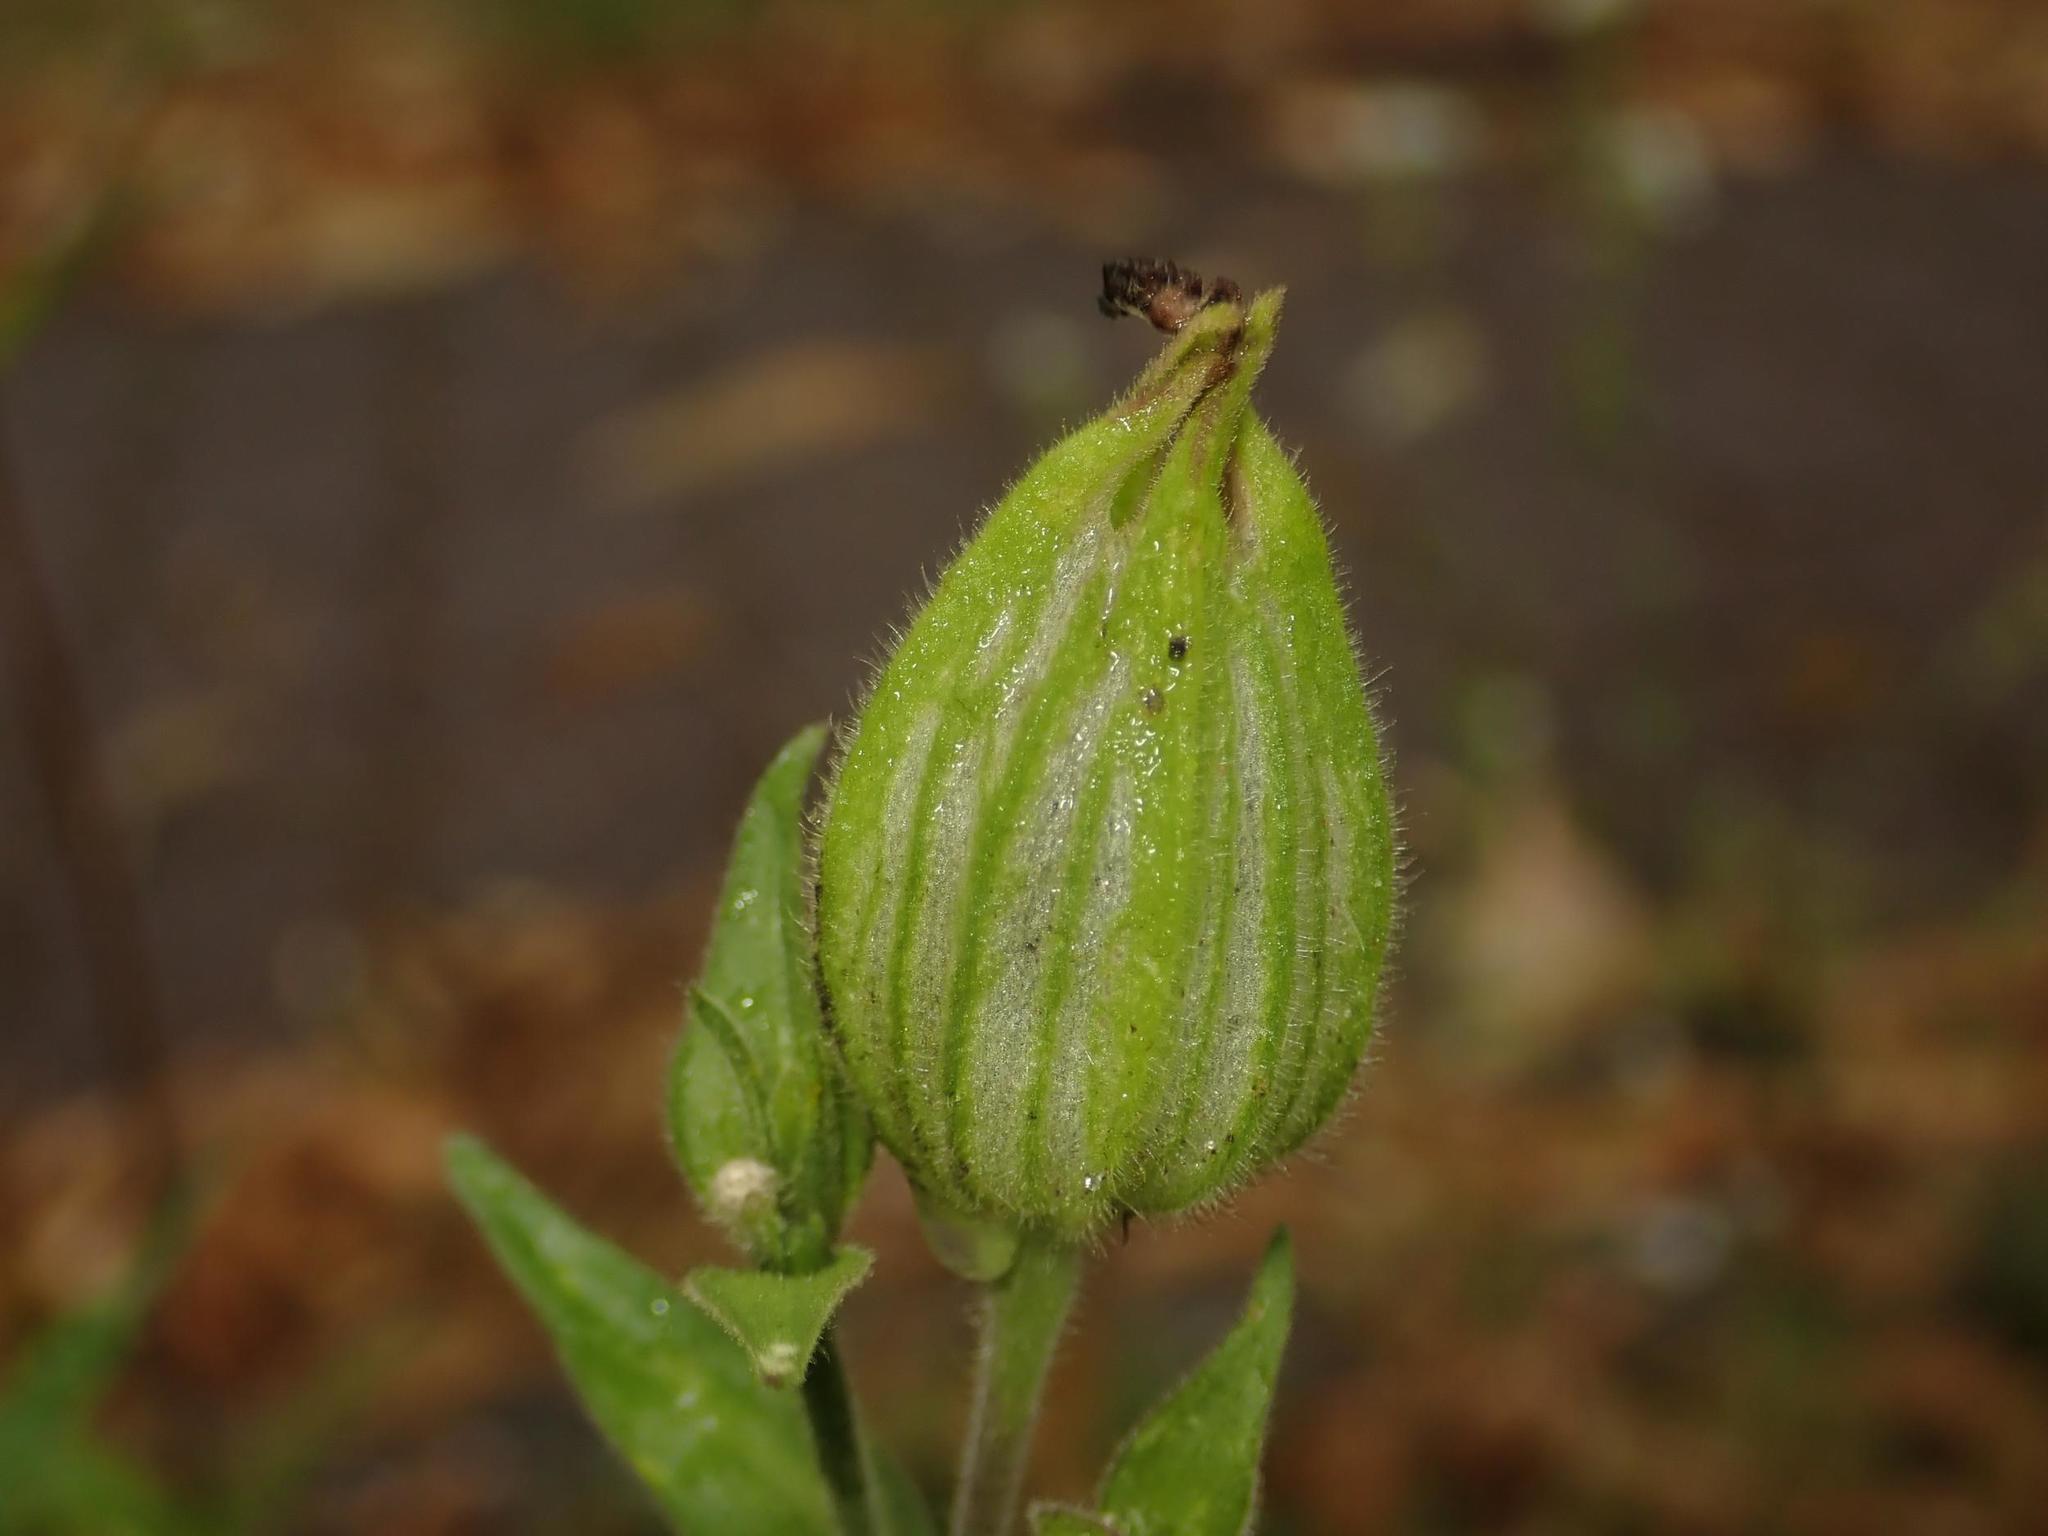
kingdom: Plantae
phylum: Tracheophyta
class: Magnoliopsida
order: Caryophyllales
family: Caryophyllaceae
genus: Silene
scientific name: Silene latifolia
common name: White campion
